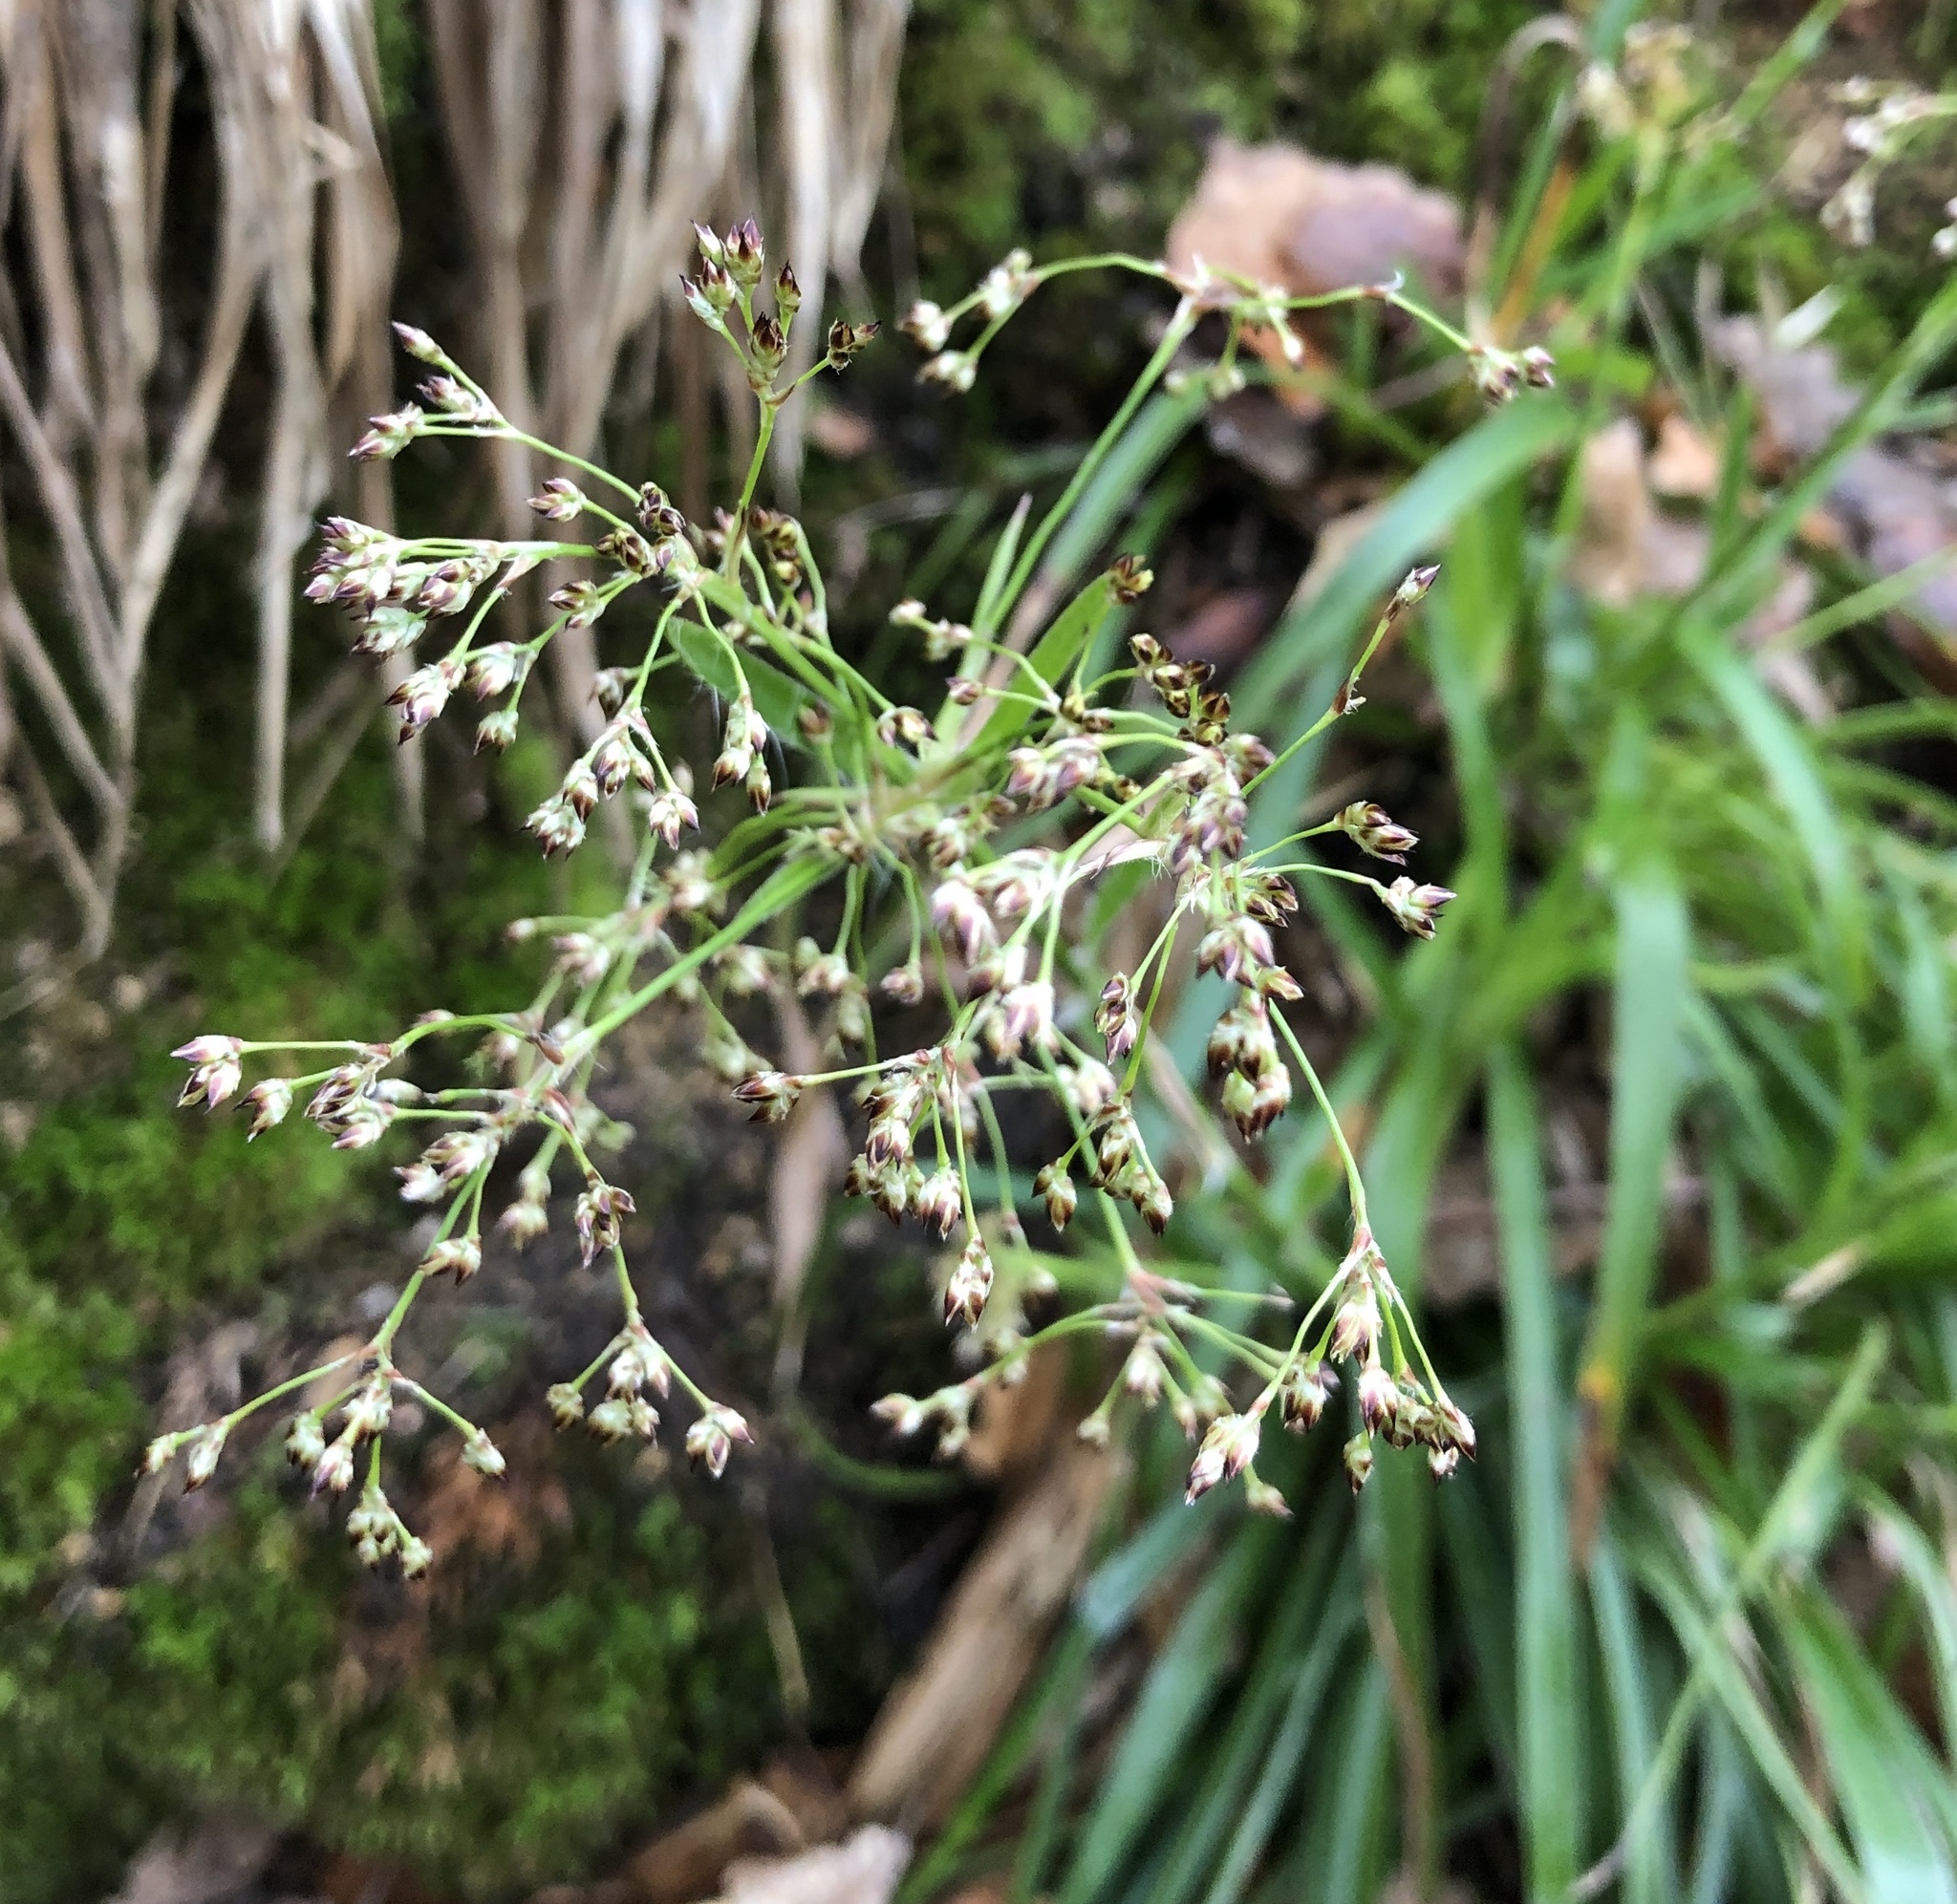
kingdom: Plantae
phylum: Tracheophyta
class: Liliopsida
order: Poales
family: Juncaceae
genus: Luzula
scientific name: Luzula sylvatica
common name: Great wood-rush
